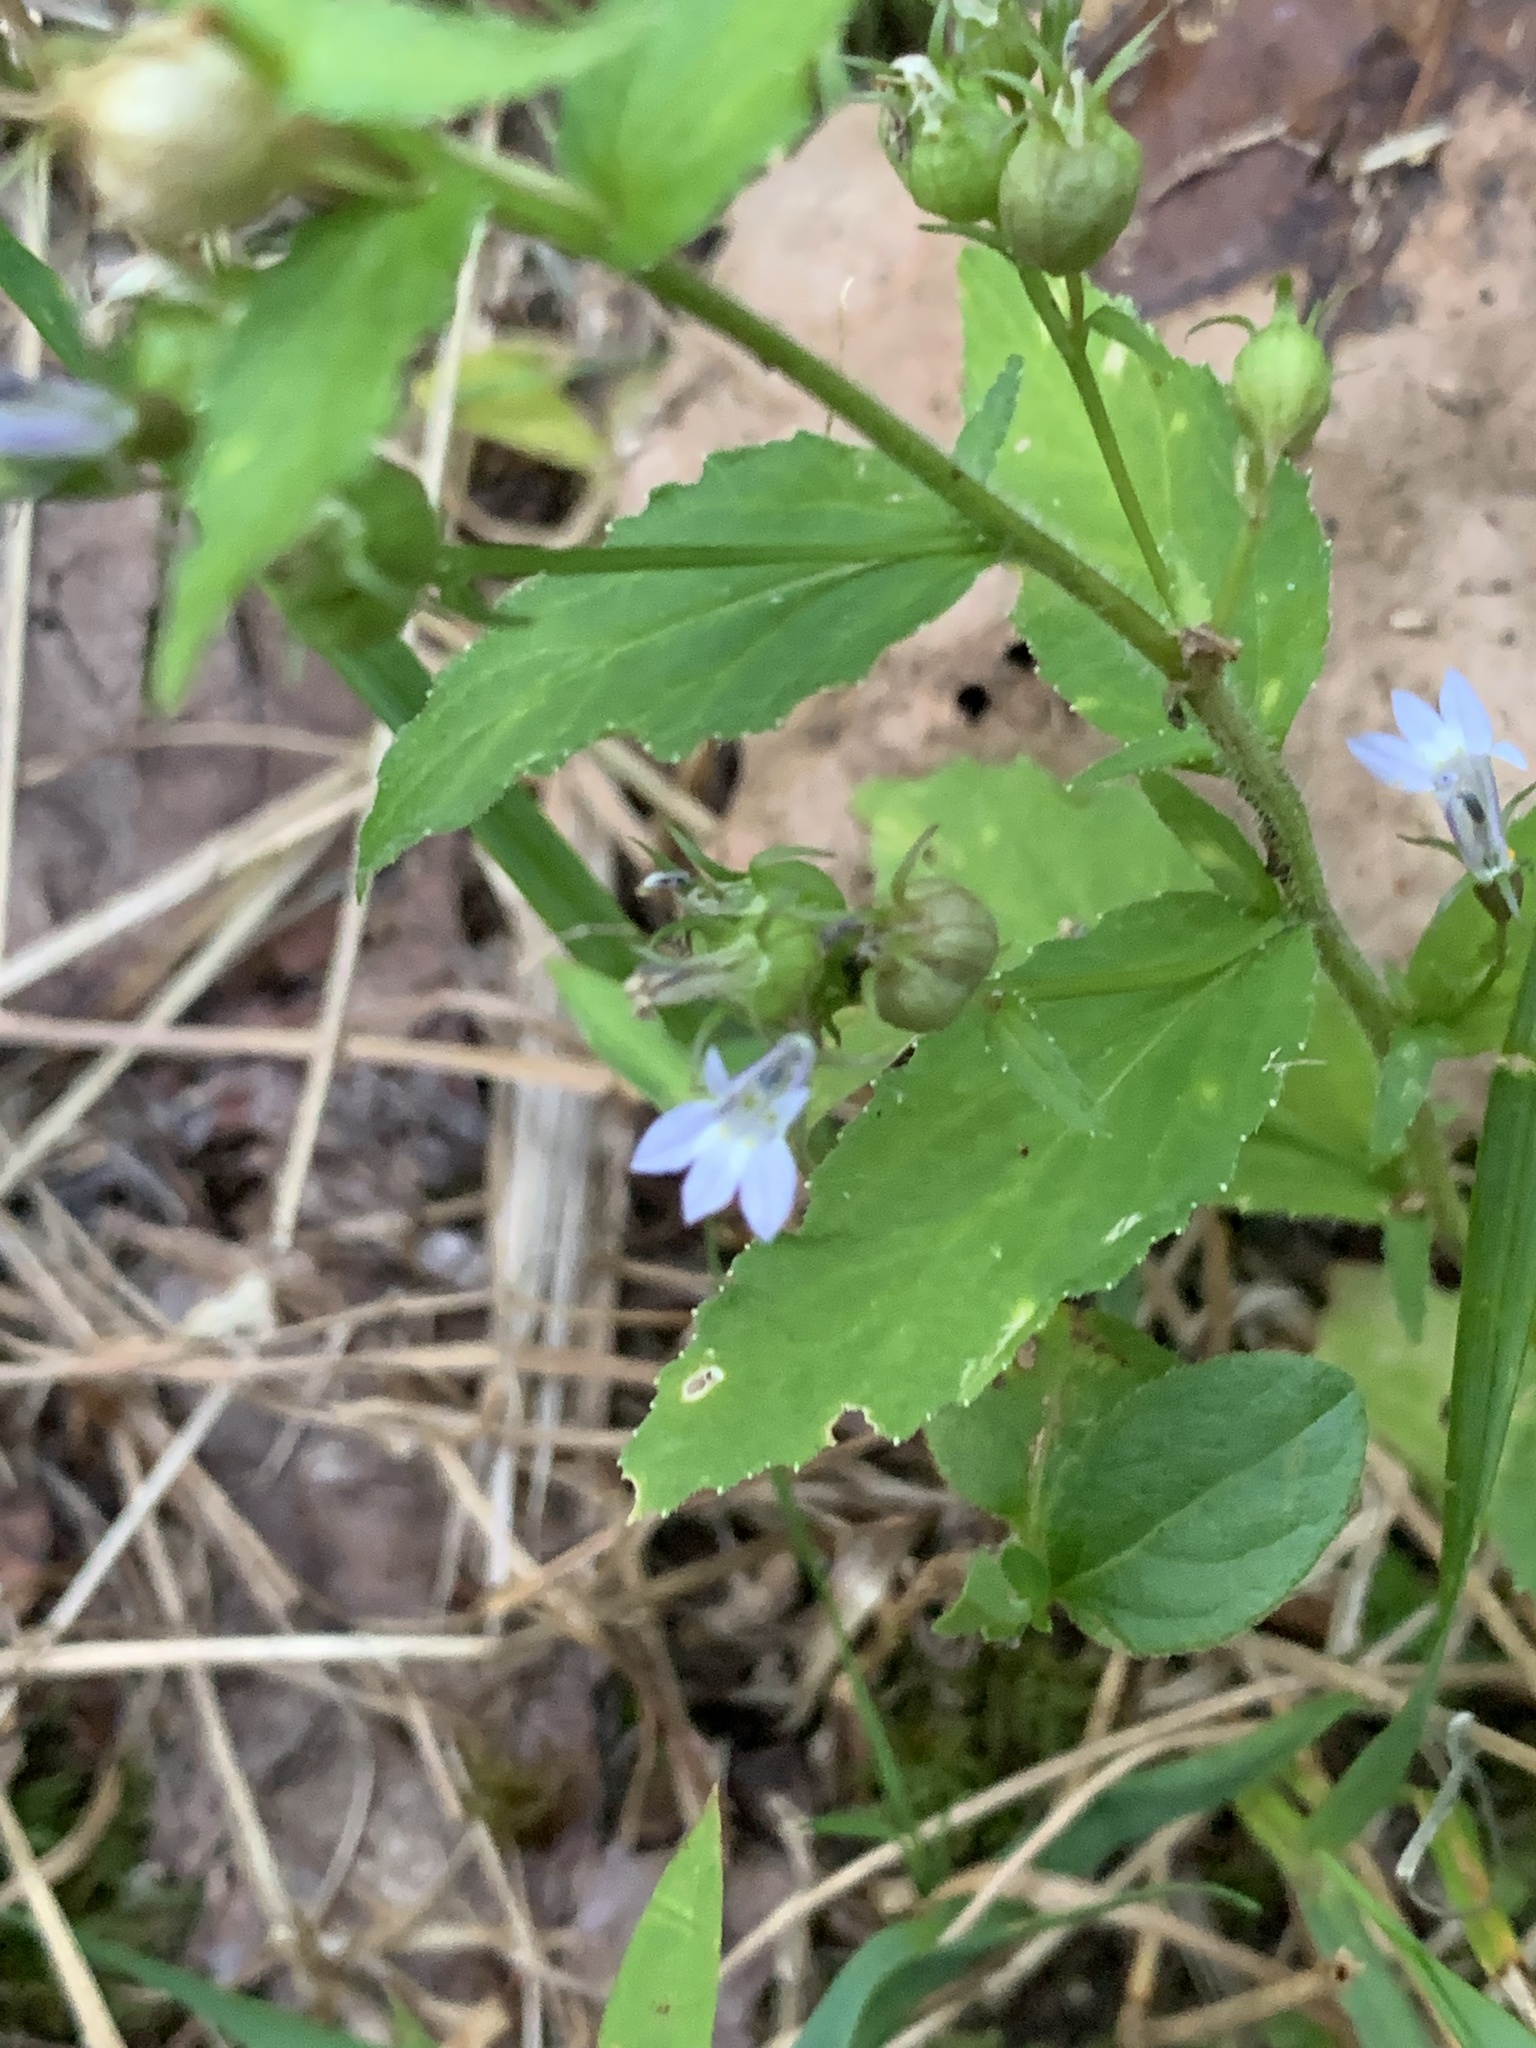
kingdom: Plantae
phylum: Tracheophyta
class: Magnoliopsida
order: Asterales
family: Campanulaceae
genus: Lobelia
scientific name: Lobelia inflata
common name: Indian tobacco
